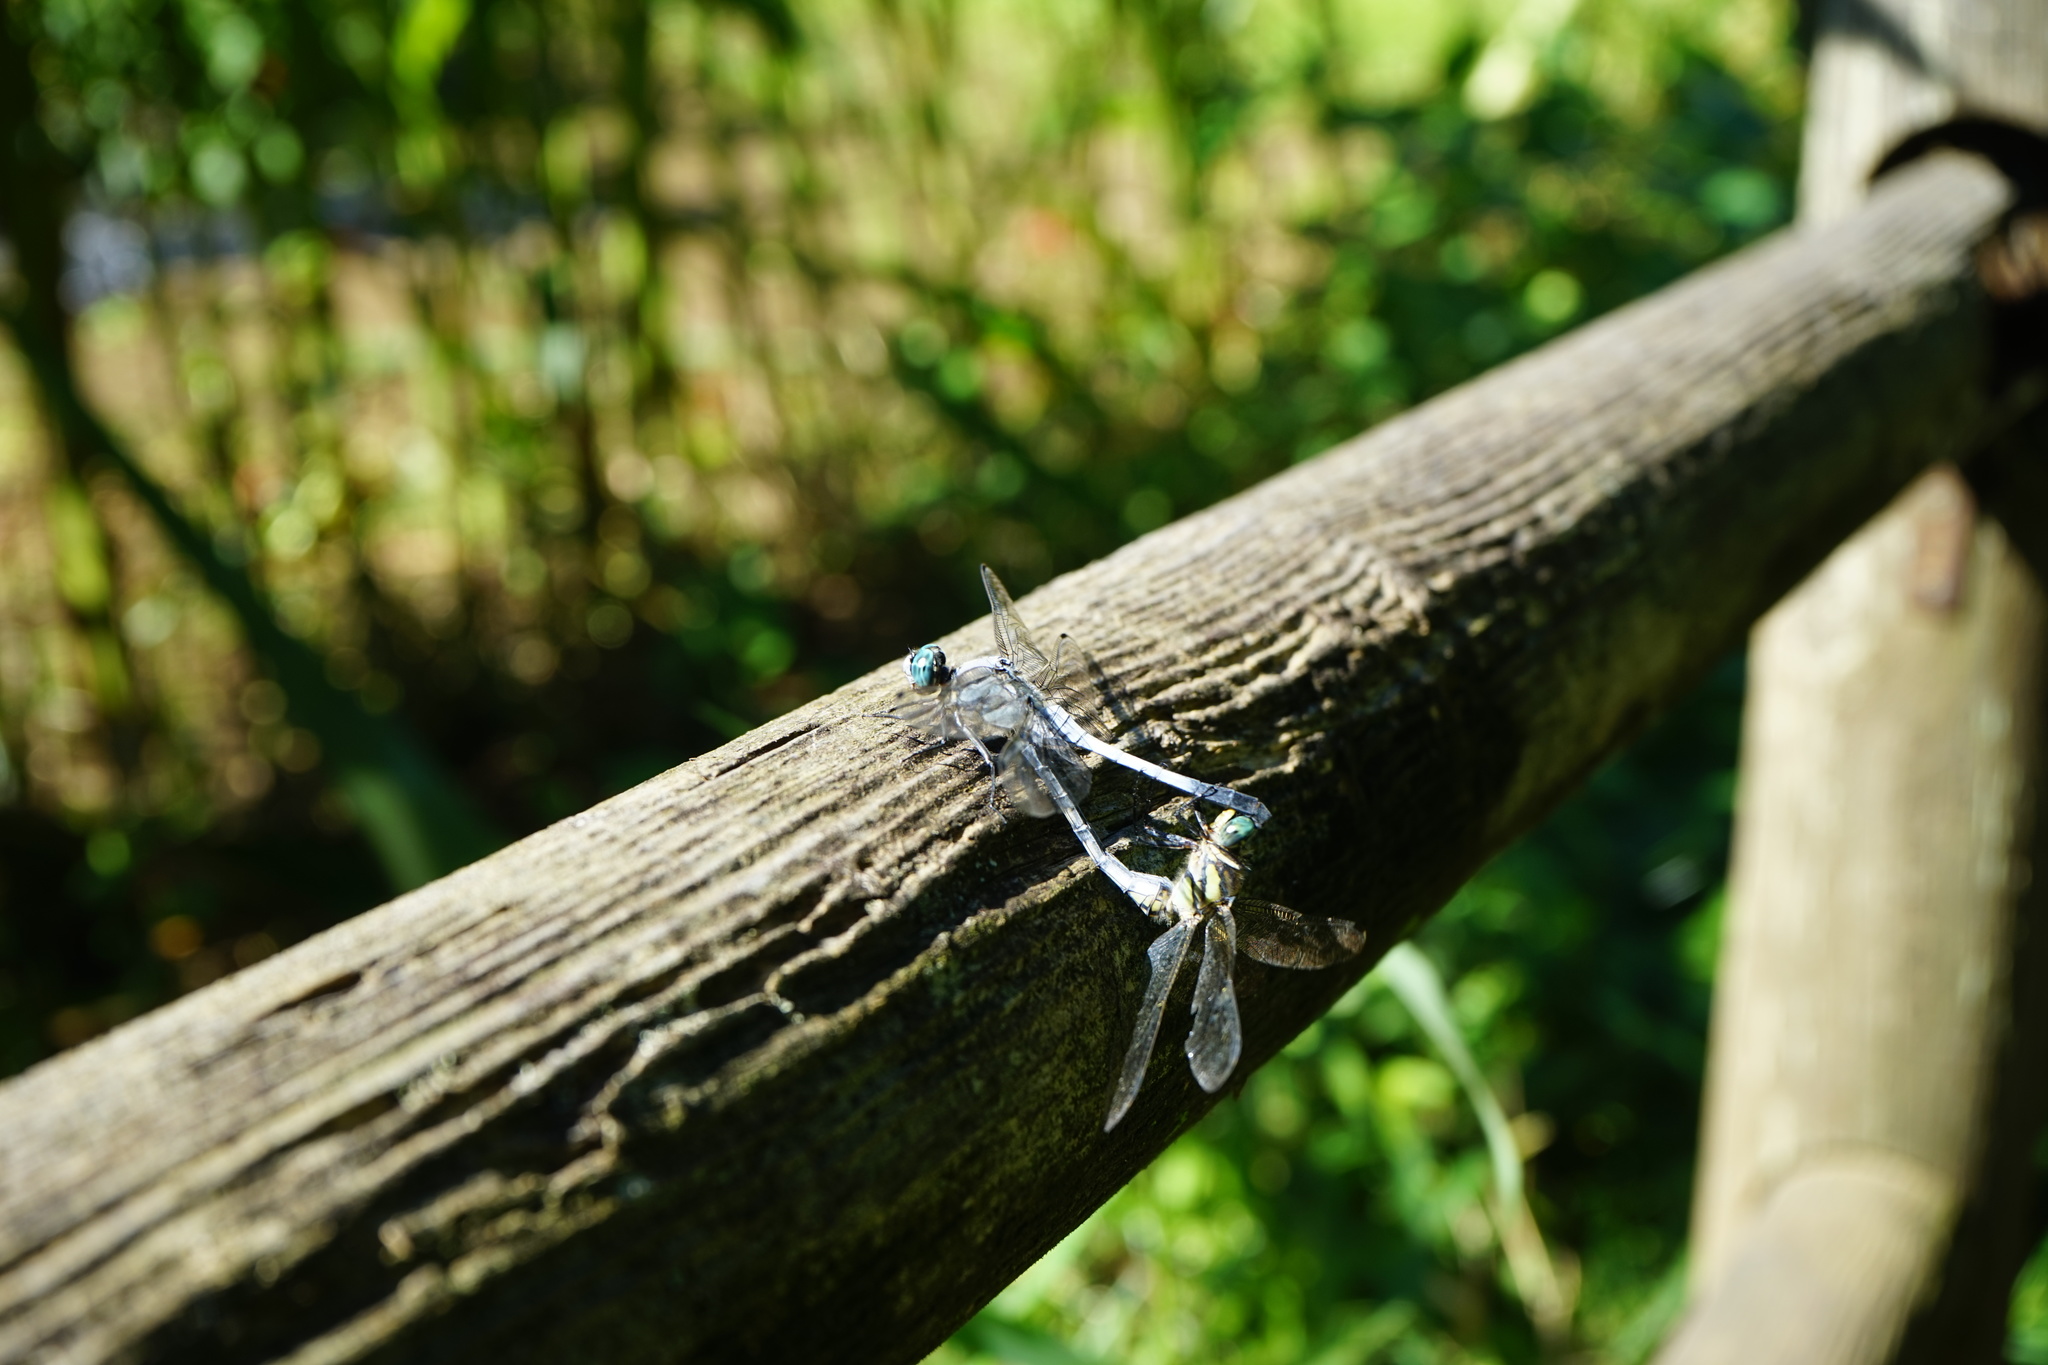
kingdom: Animalia
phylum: Arthropoda
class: Insecta
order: Odonata
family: Libellulidae
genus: Orthetrum
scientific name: Orthetrum albistylum
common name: White-tailed skimmer
